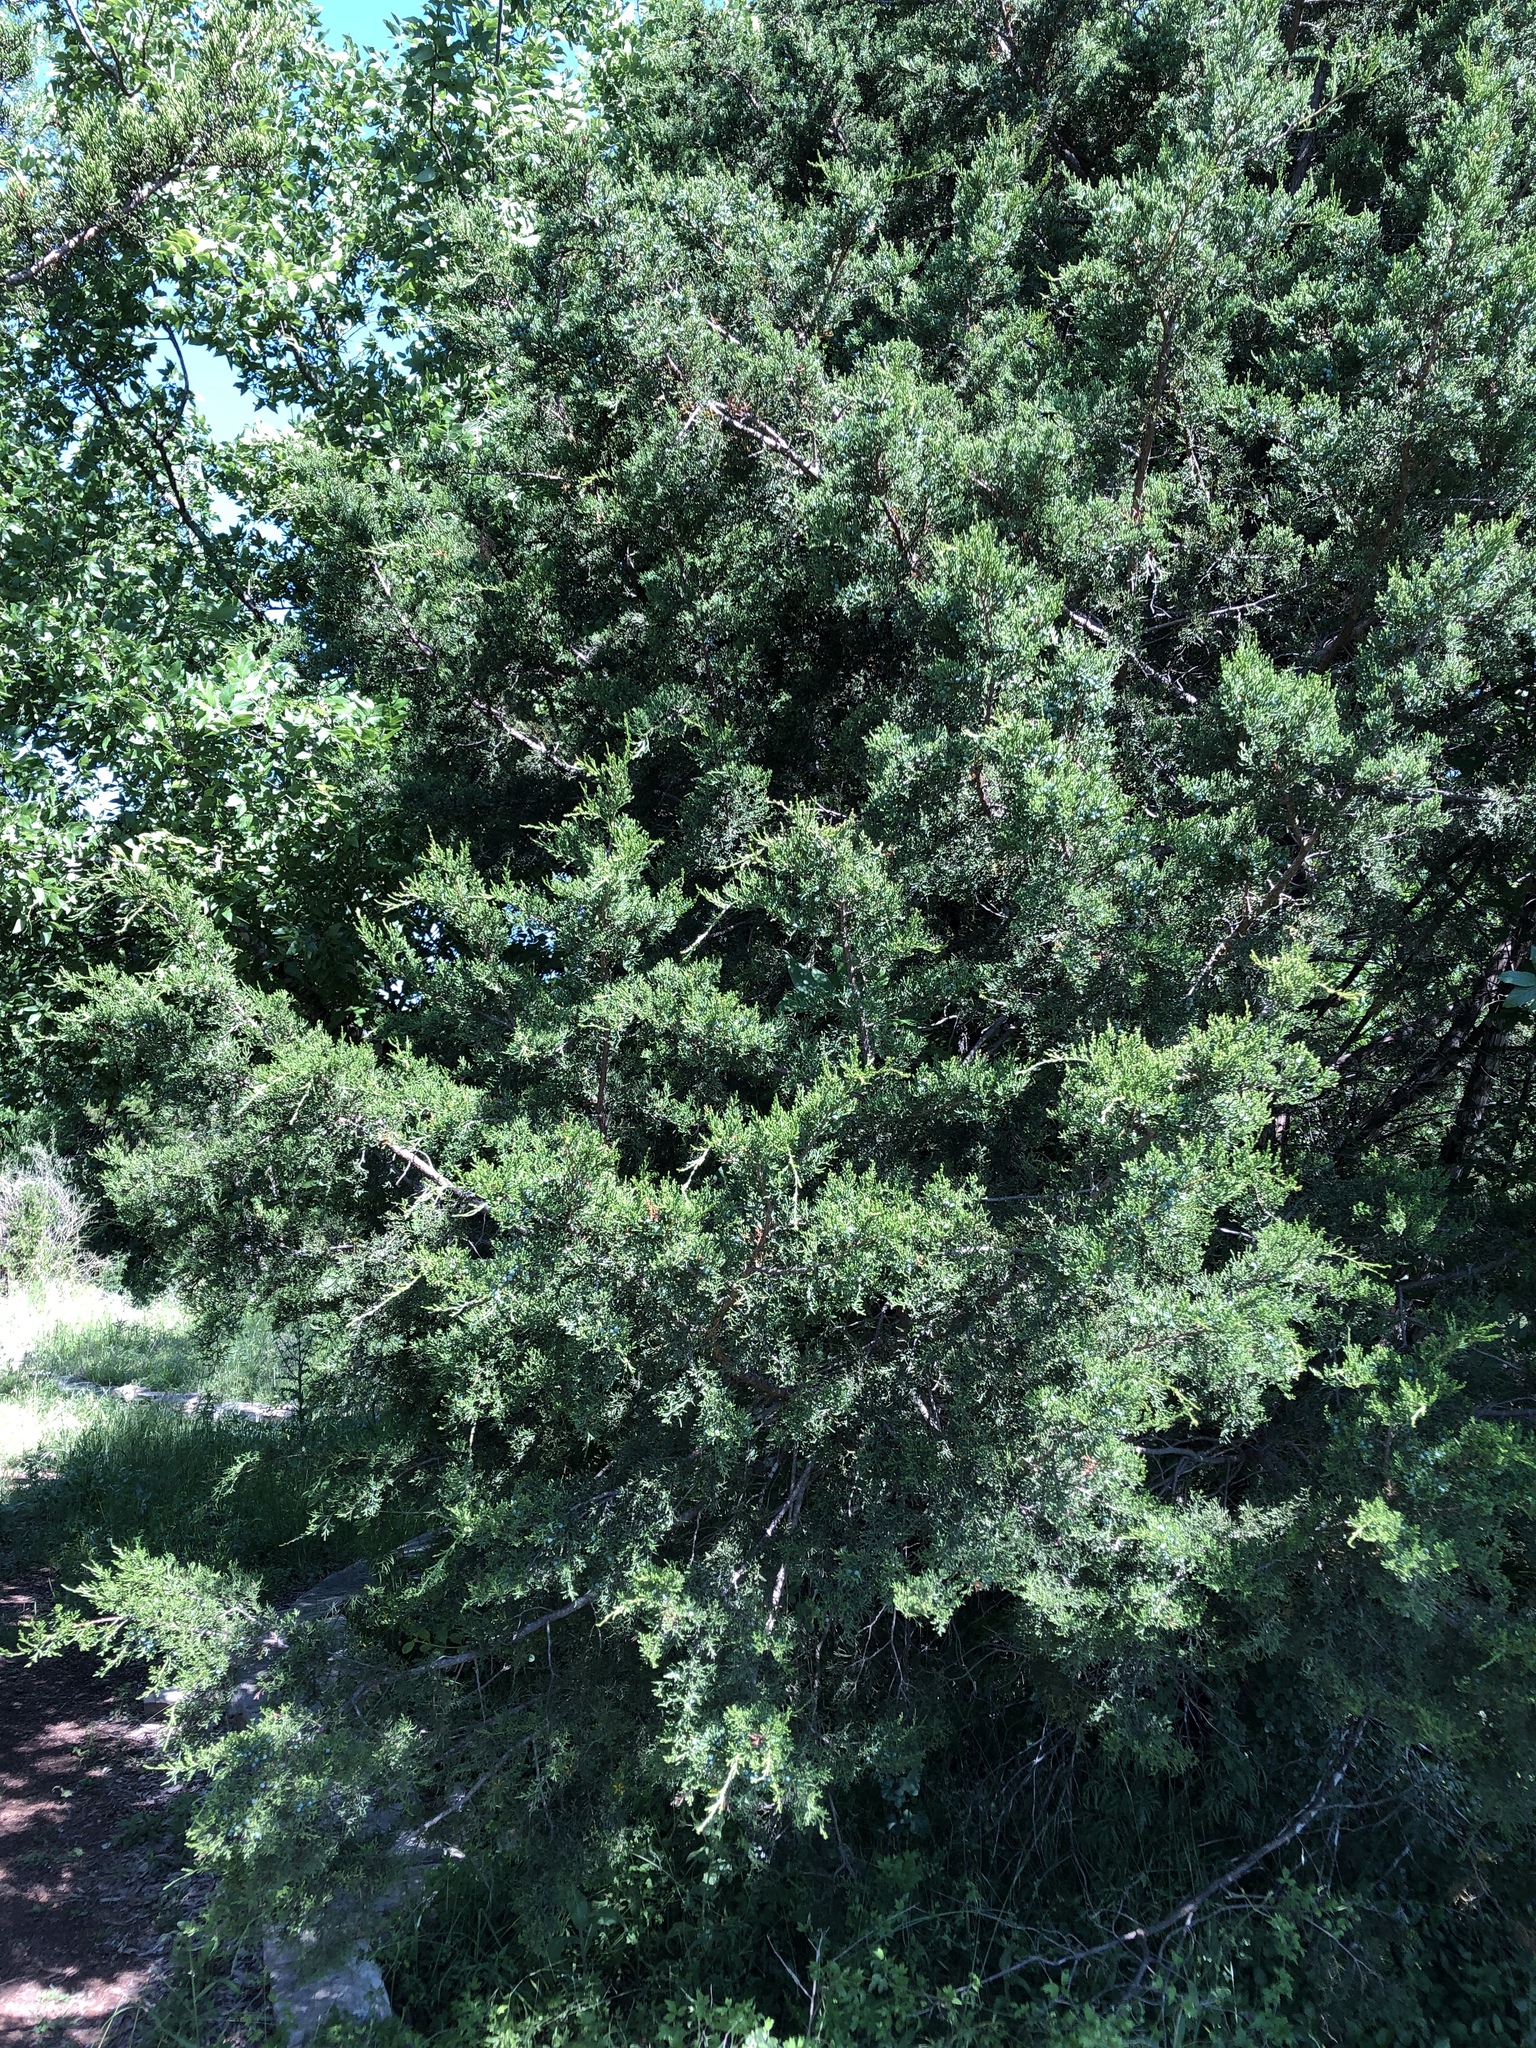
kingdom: Plantae
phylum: Tracheophyta
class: Pinopsida
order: Pinales
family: Cupressaceae
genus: Juniperus
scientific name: Juniperus ashei
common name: Mexican juniper
